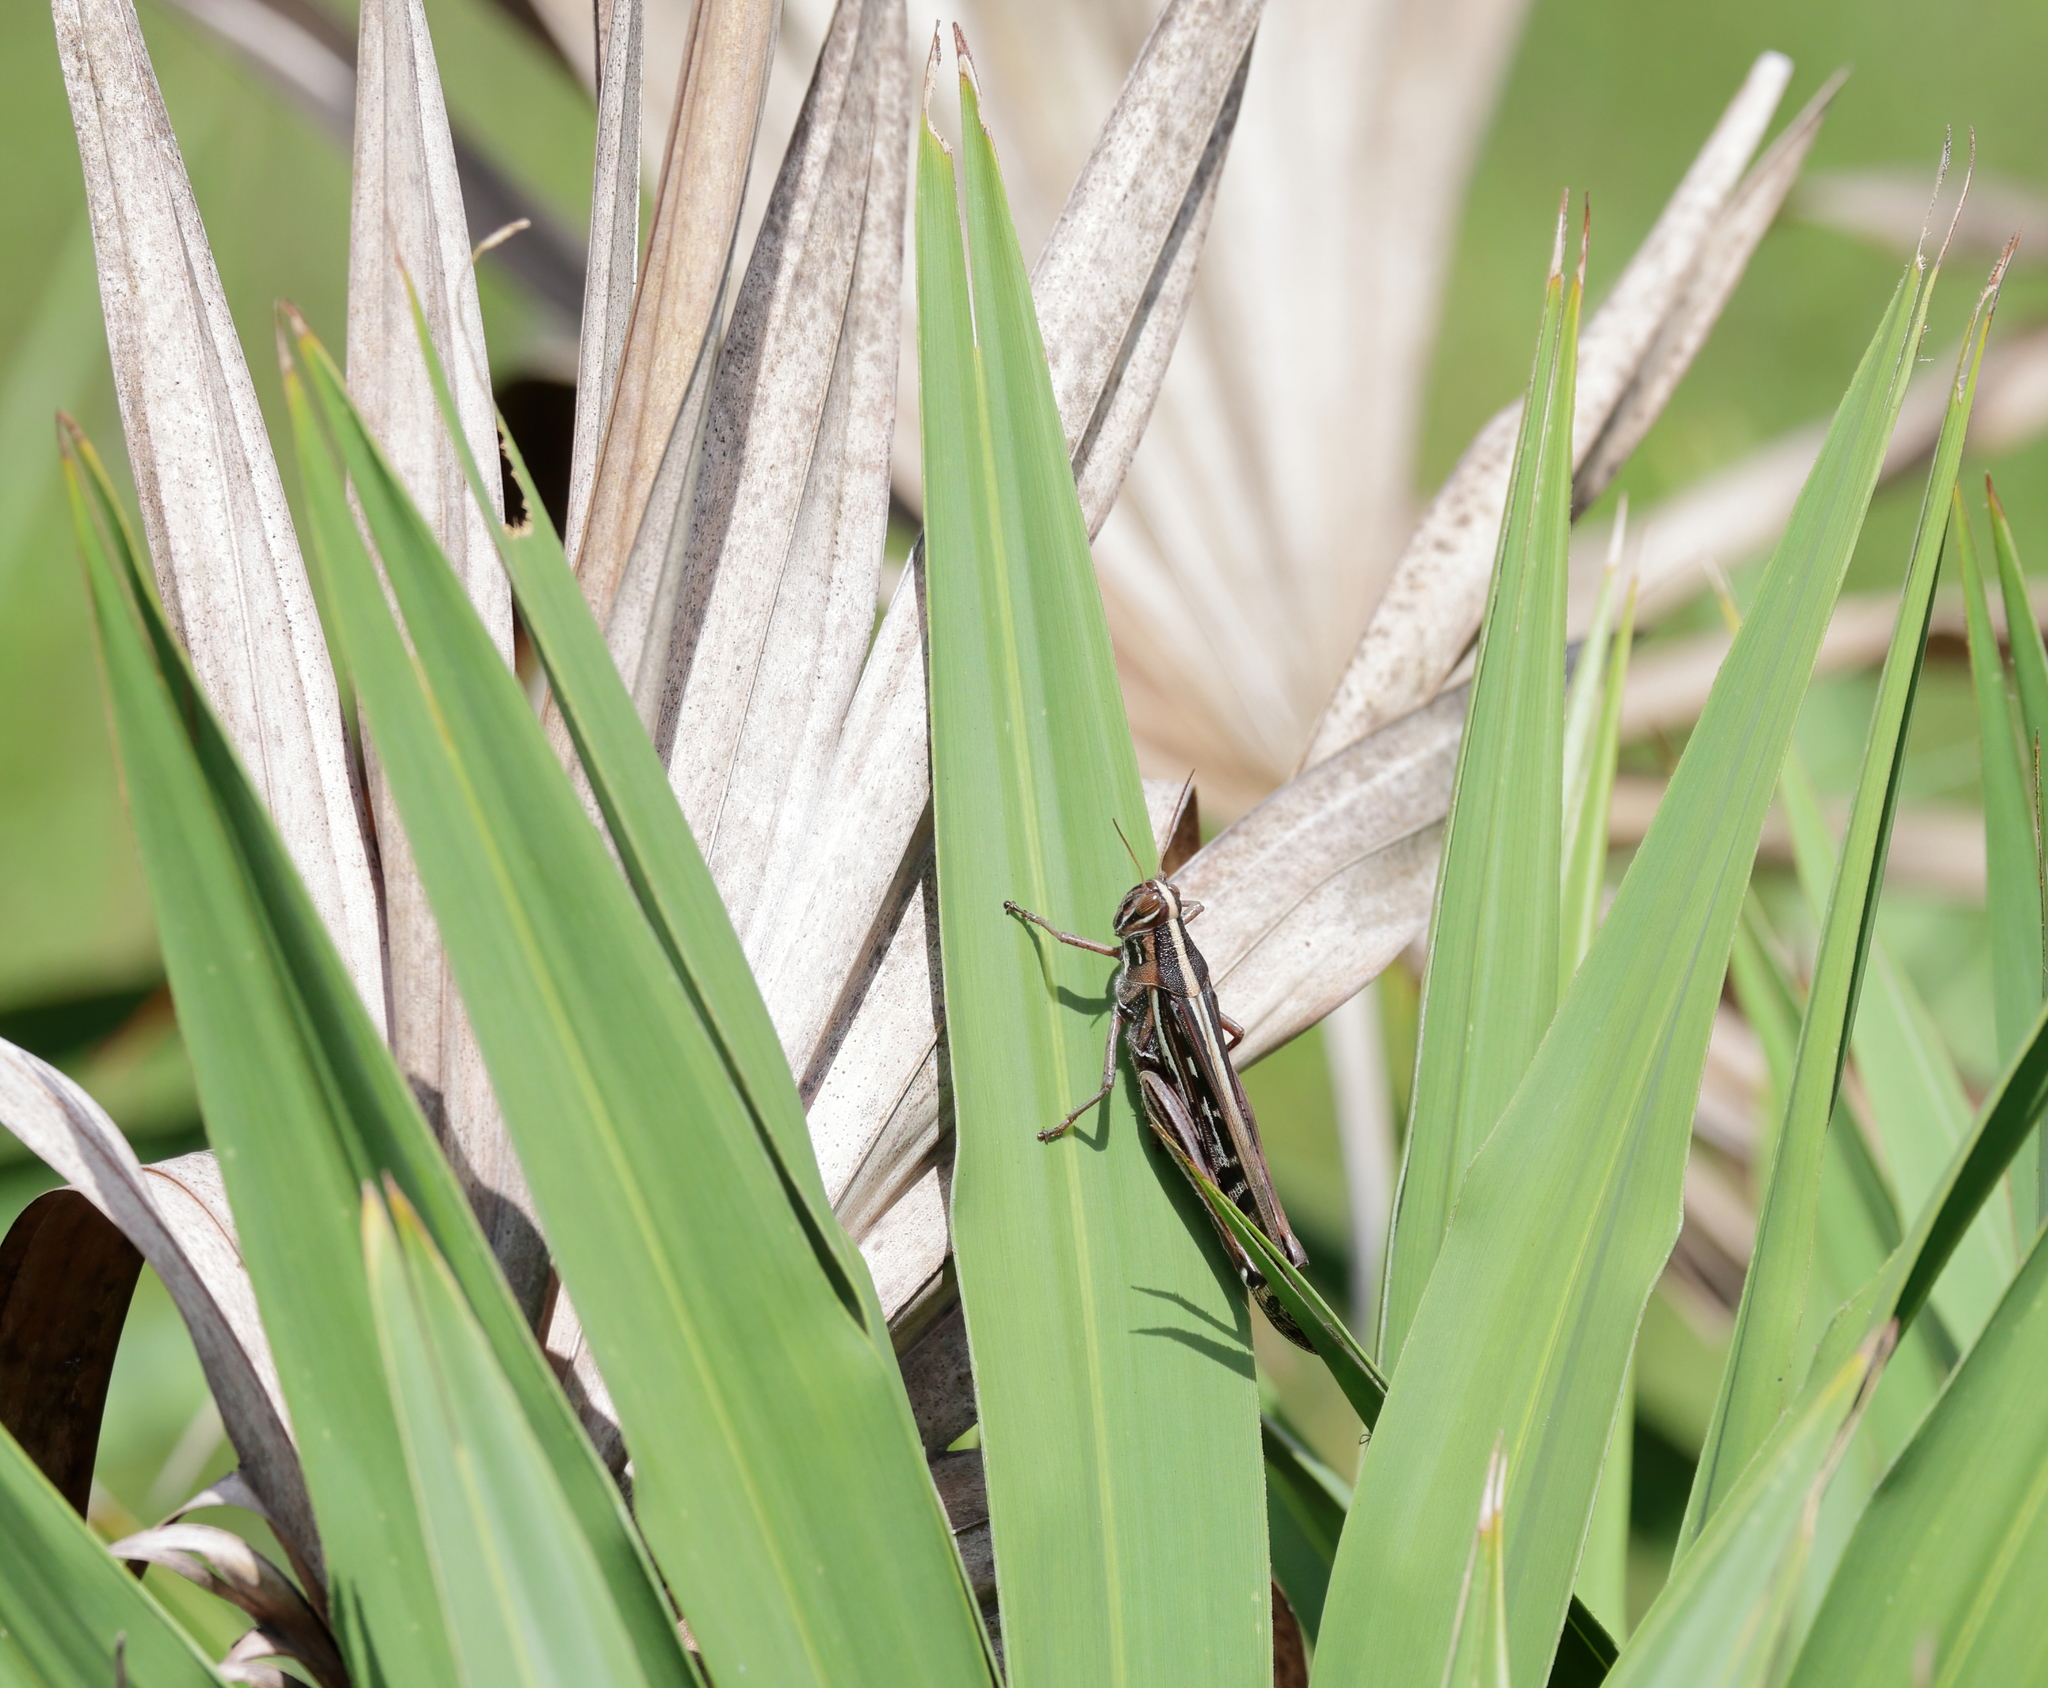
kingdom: Animalia
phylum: Arthropoda
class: Insecta
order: Orthoptera
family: Acrididae
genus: Schistocerca
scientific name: Schistocerca americana
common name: American bird locust
